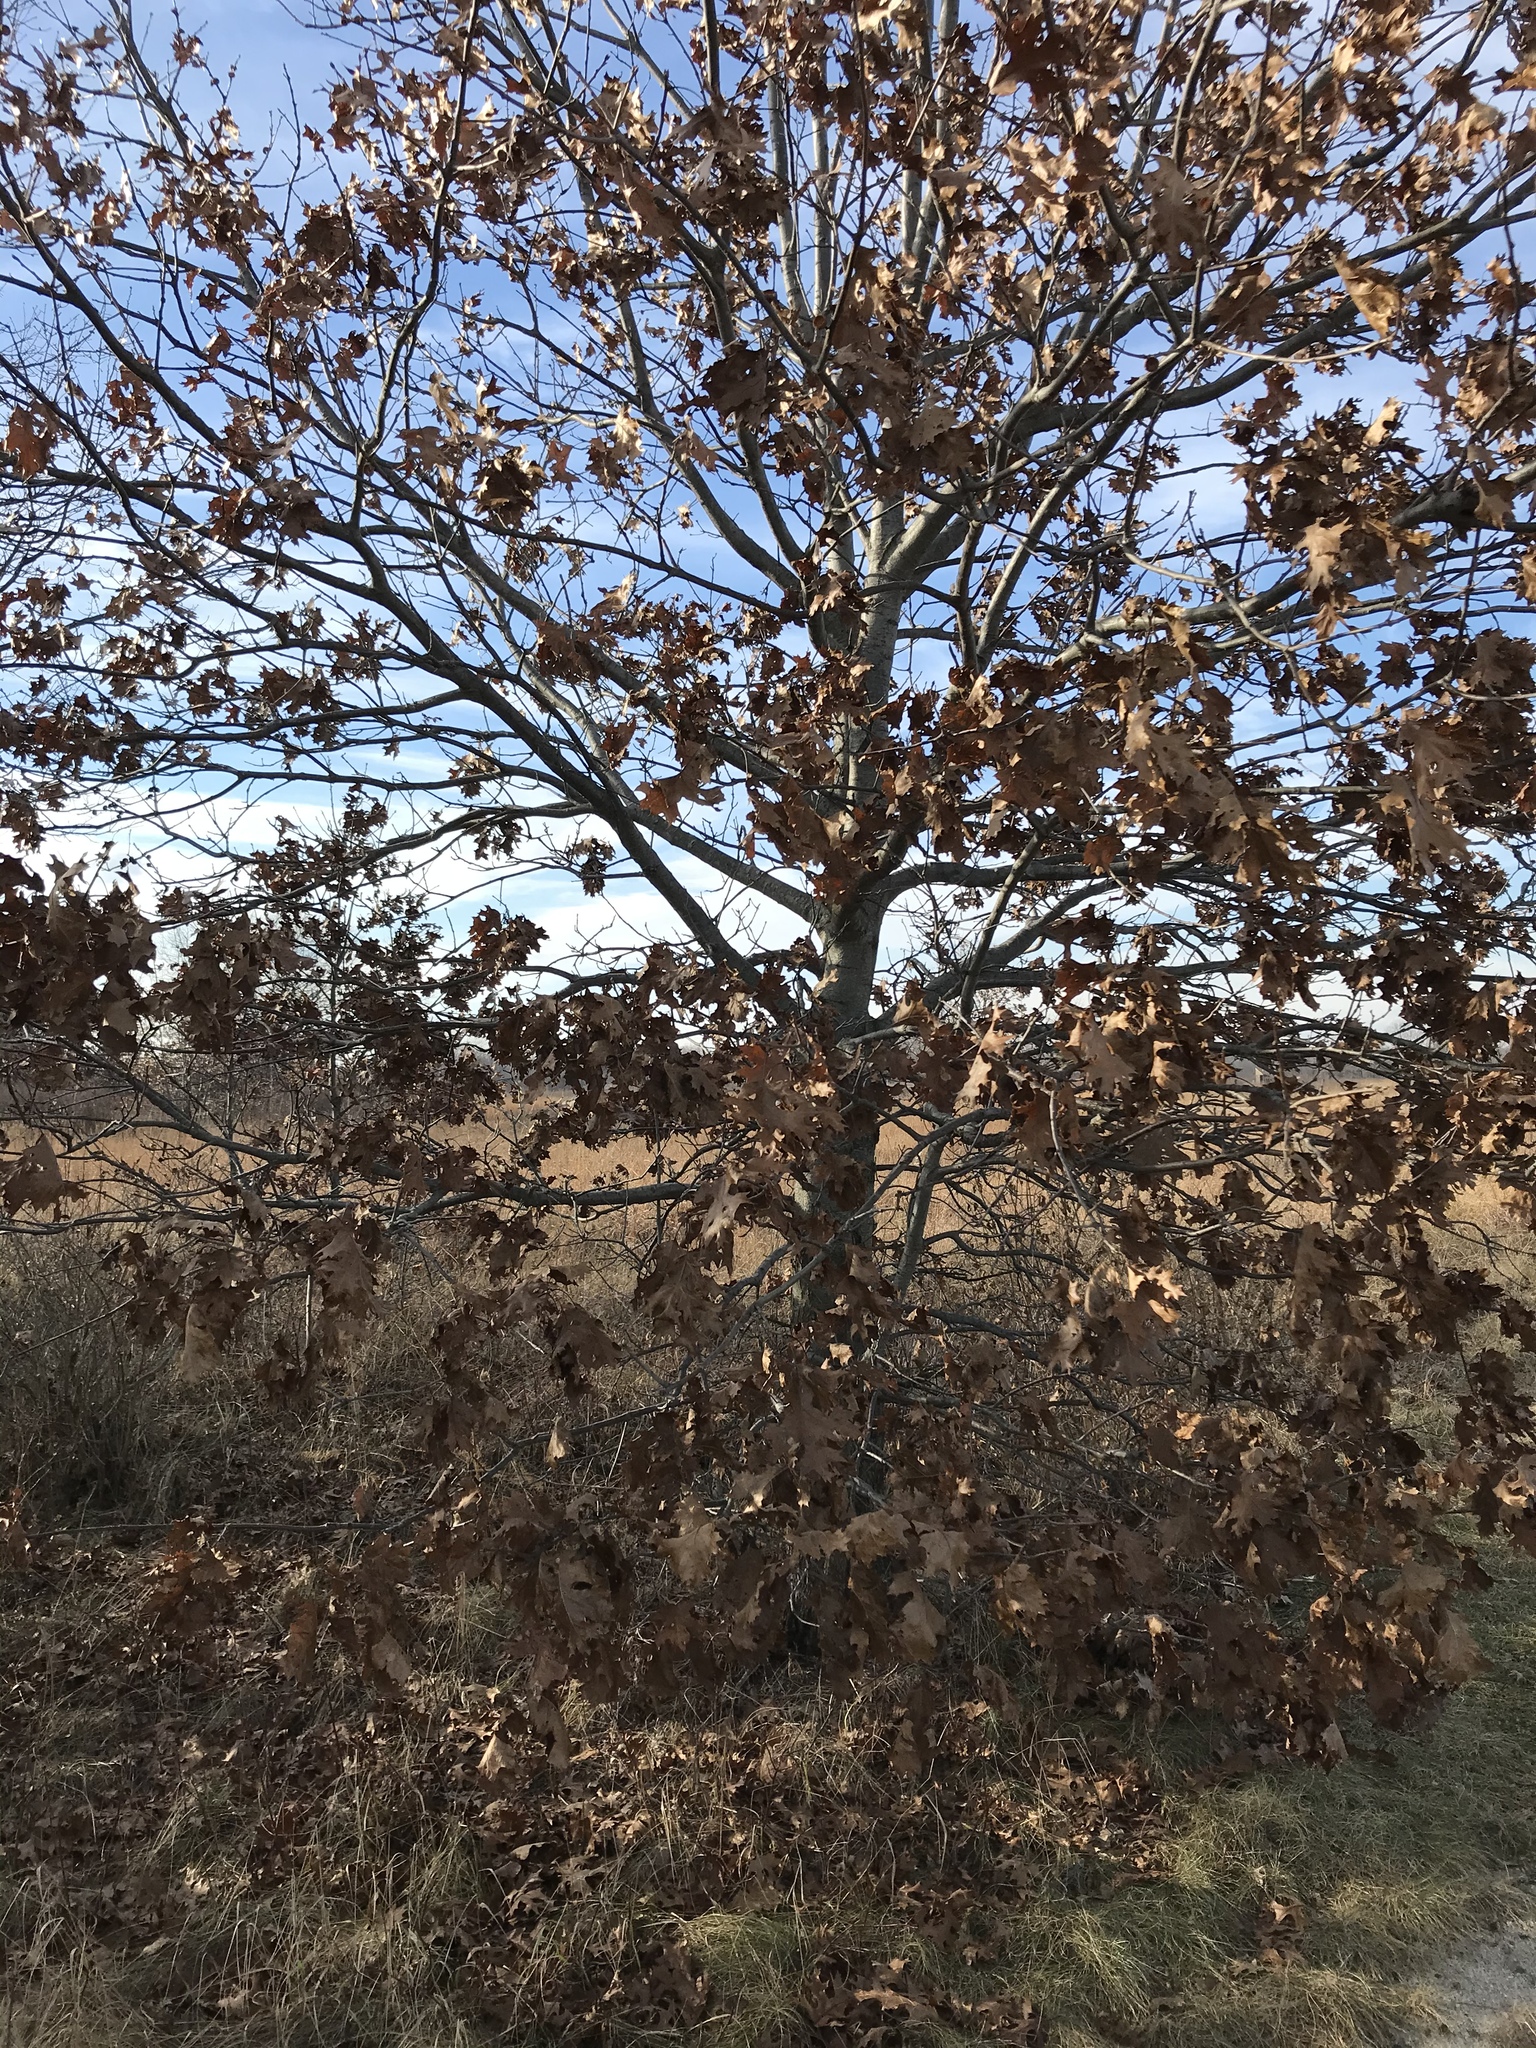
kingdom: Plantae
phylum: Tracheophyta
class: Magnoliopsida
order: Fagales
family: Fagaceae
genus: Quercus
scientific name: Quercus velutina
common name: Black oak
